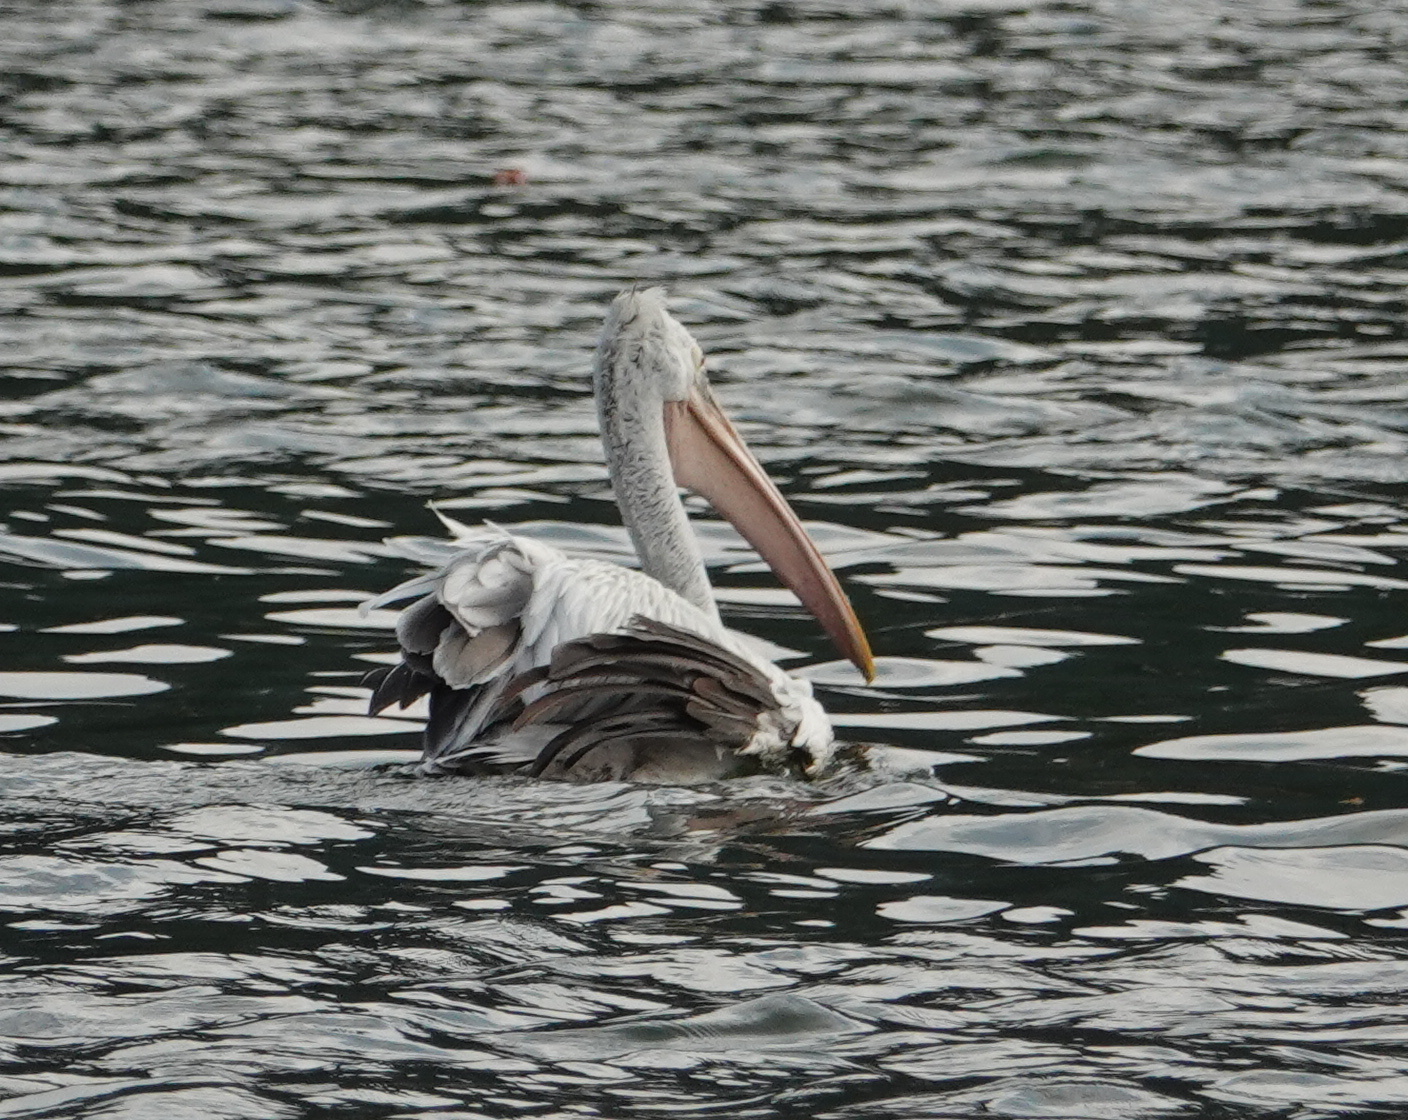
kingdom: Animalia
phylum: Chordata
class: Aves
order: Pelecaniformes
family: Pelecanidae
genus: Pelecanus
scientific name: Pelecanus philippensis
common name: Spot-billed pelican
